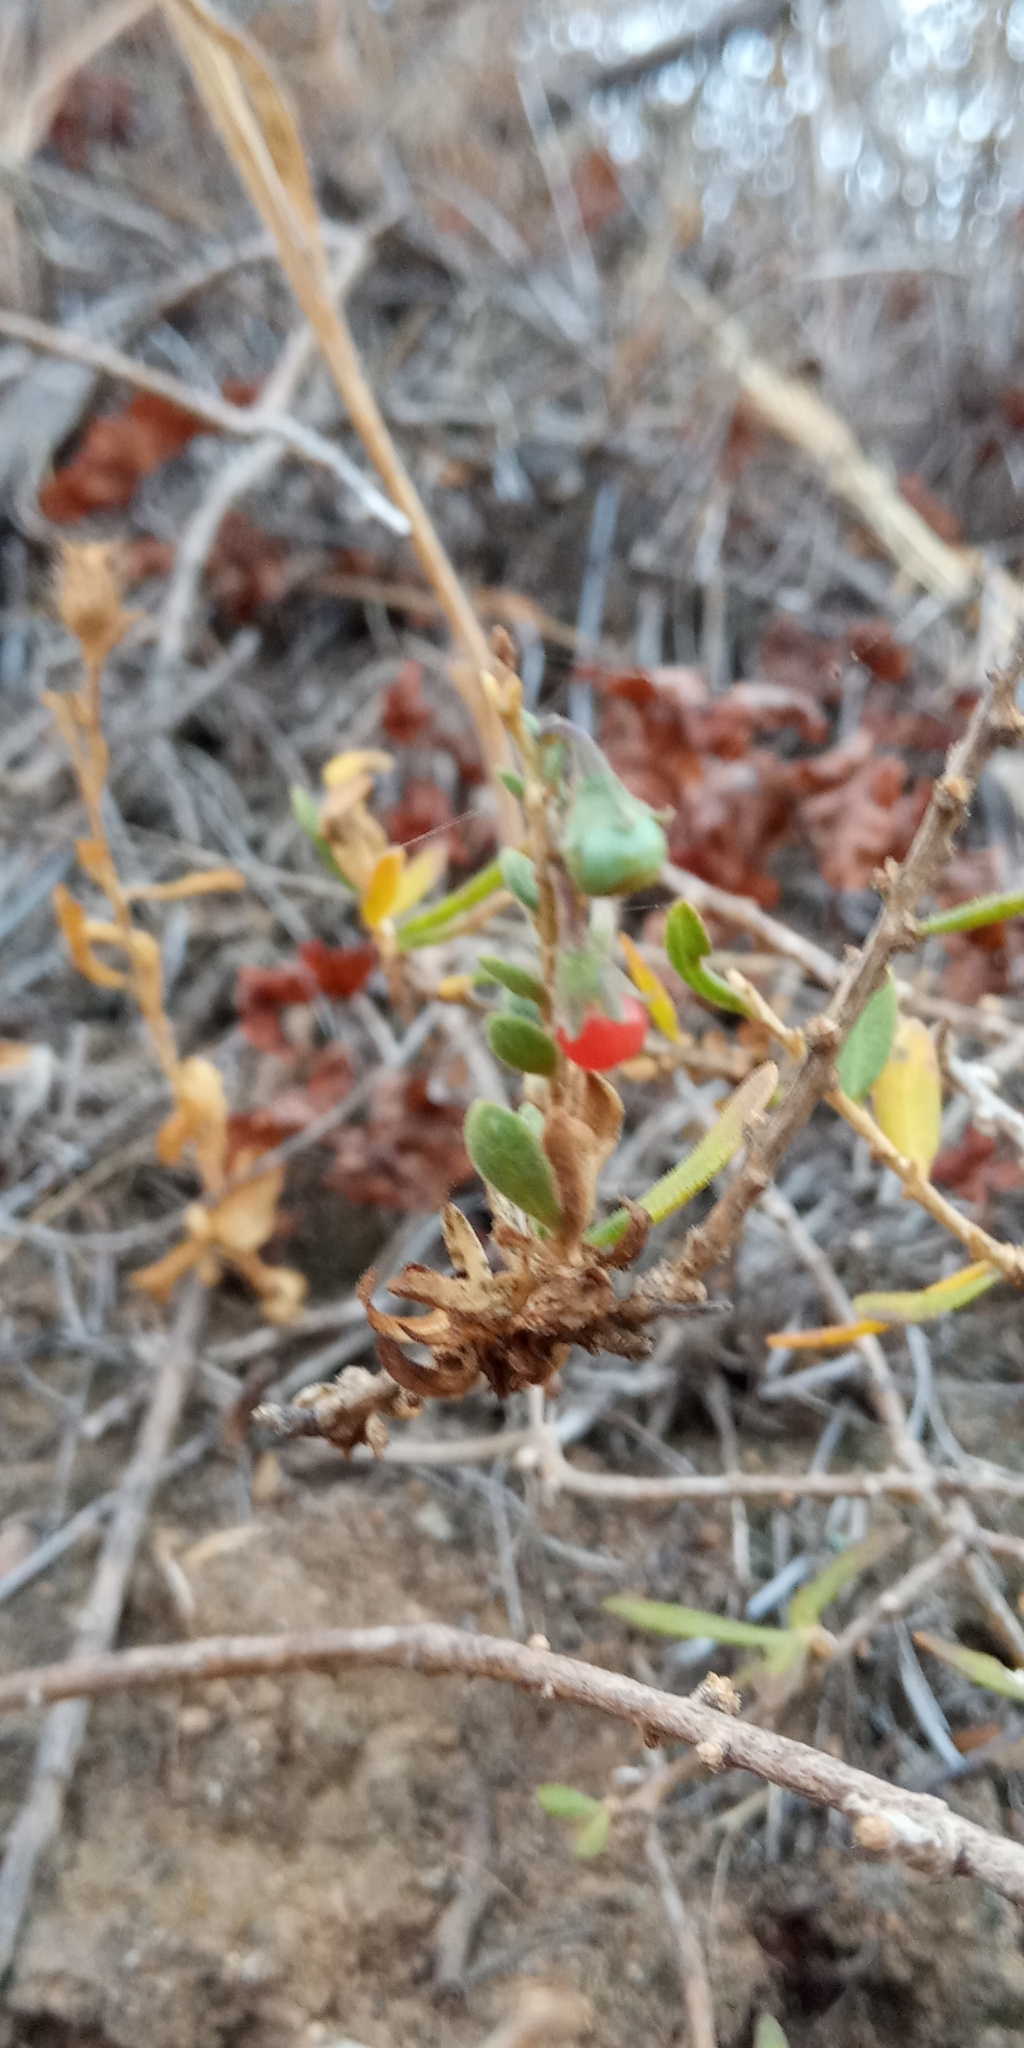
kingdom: Plantae
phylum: Tracheophyta
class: Magnoliopsida
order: Solanales
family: Solanaceae
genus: Lycium
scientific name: Lycium chilense
